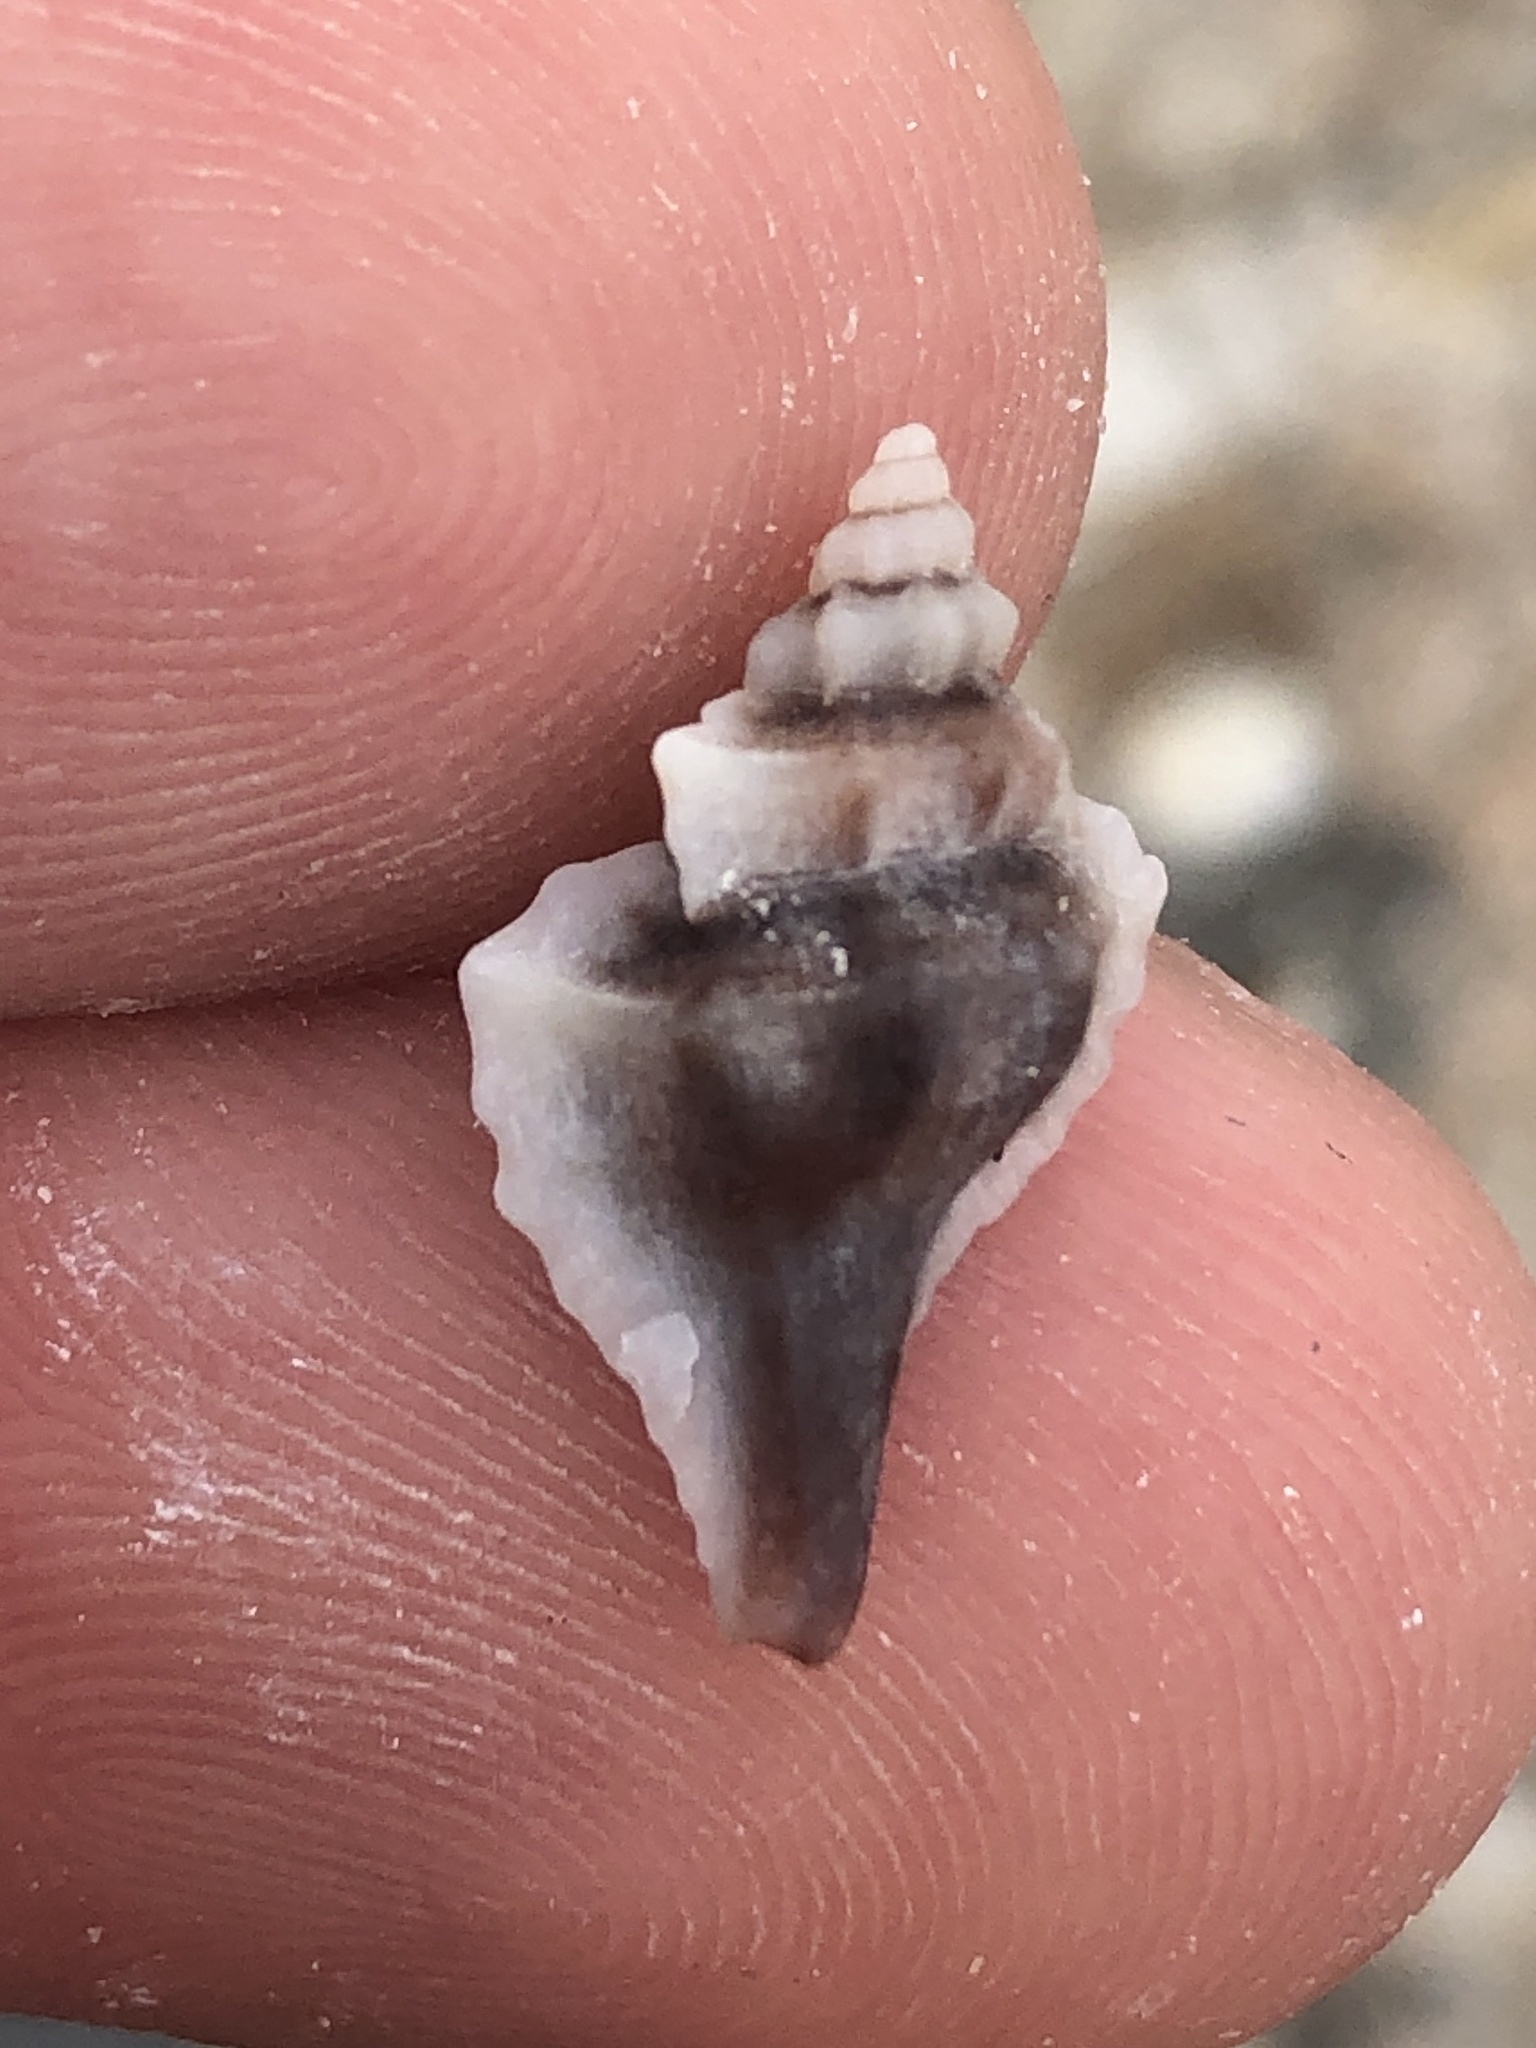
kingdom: Animalia
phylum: Mollusca
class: Gastropoda
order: Neogastropoda
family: Muricidae
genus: Eupleura
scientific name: Eupleura sulcidentata
